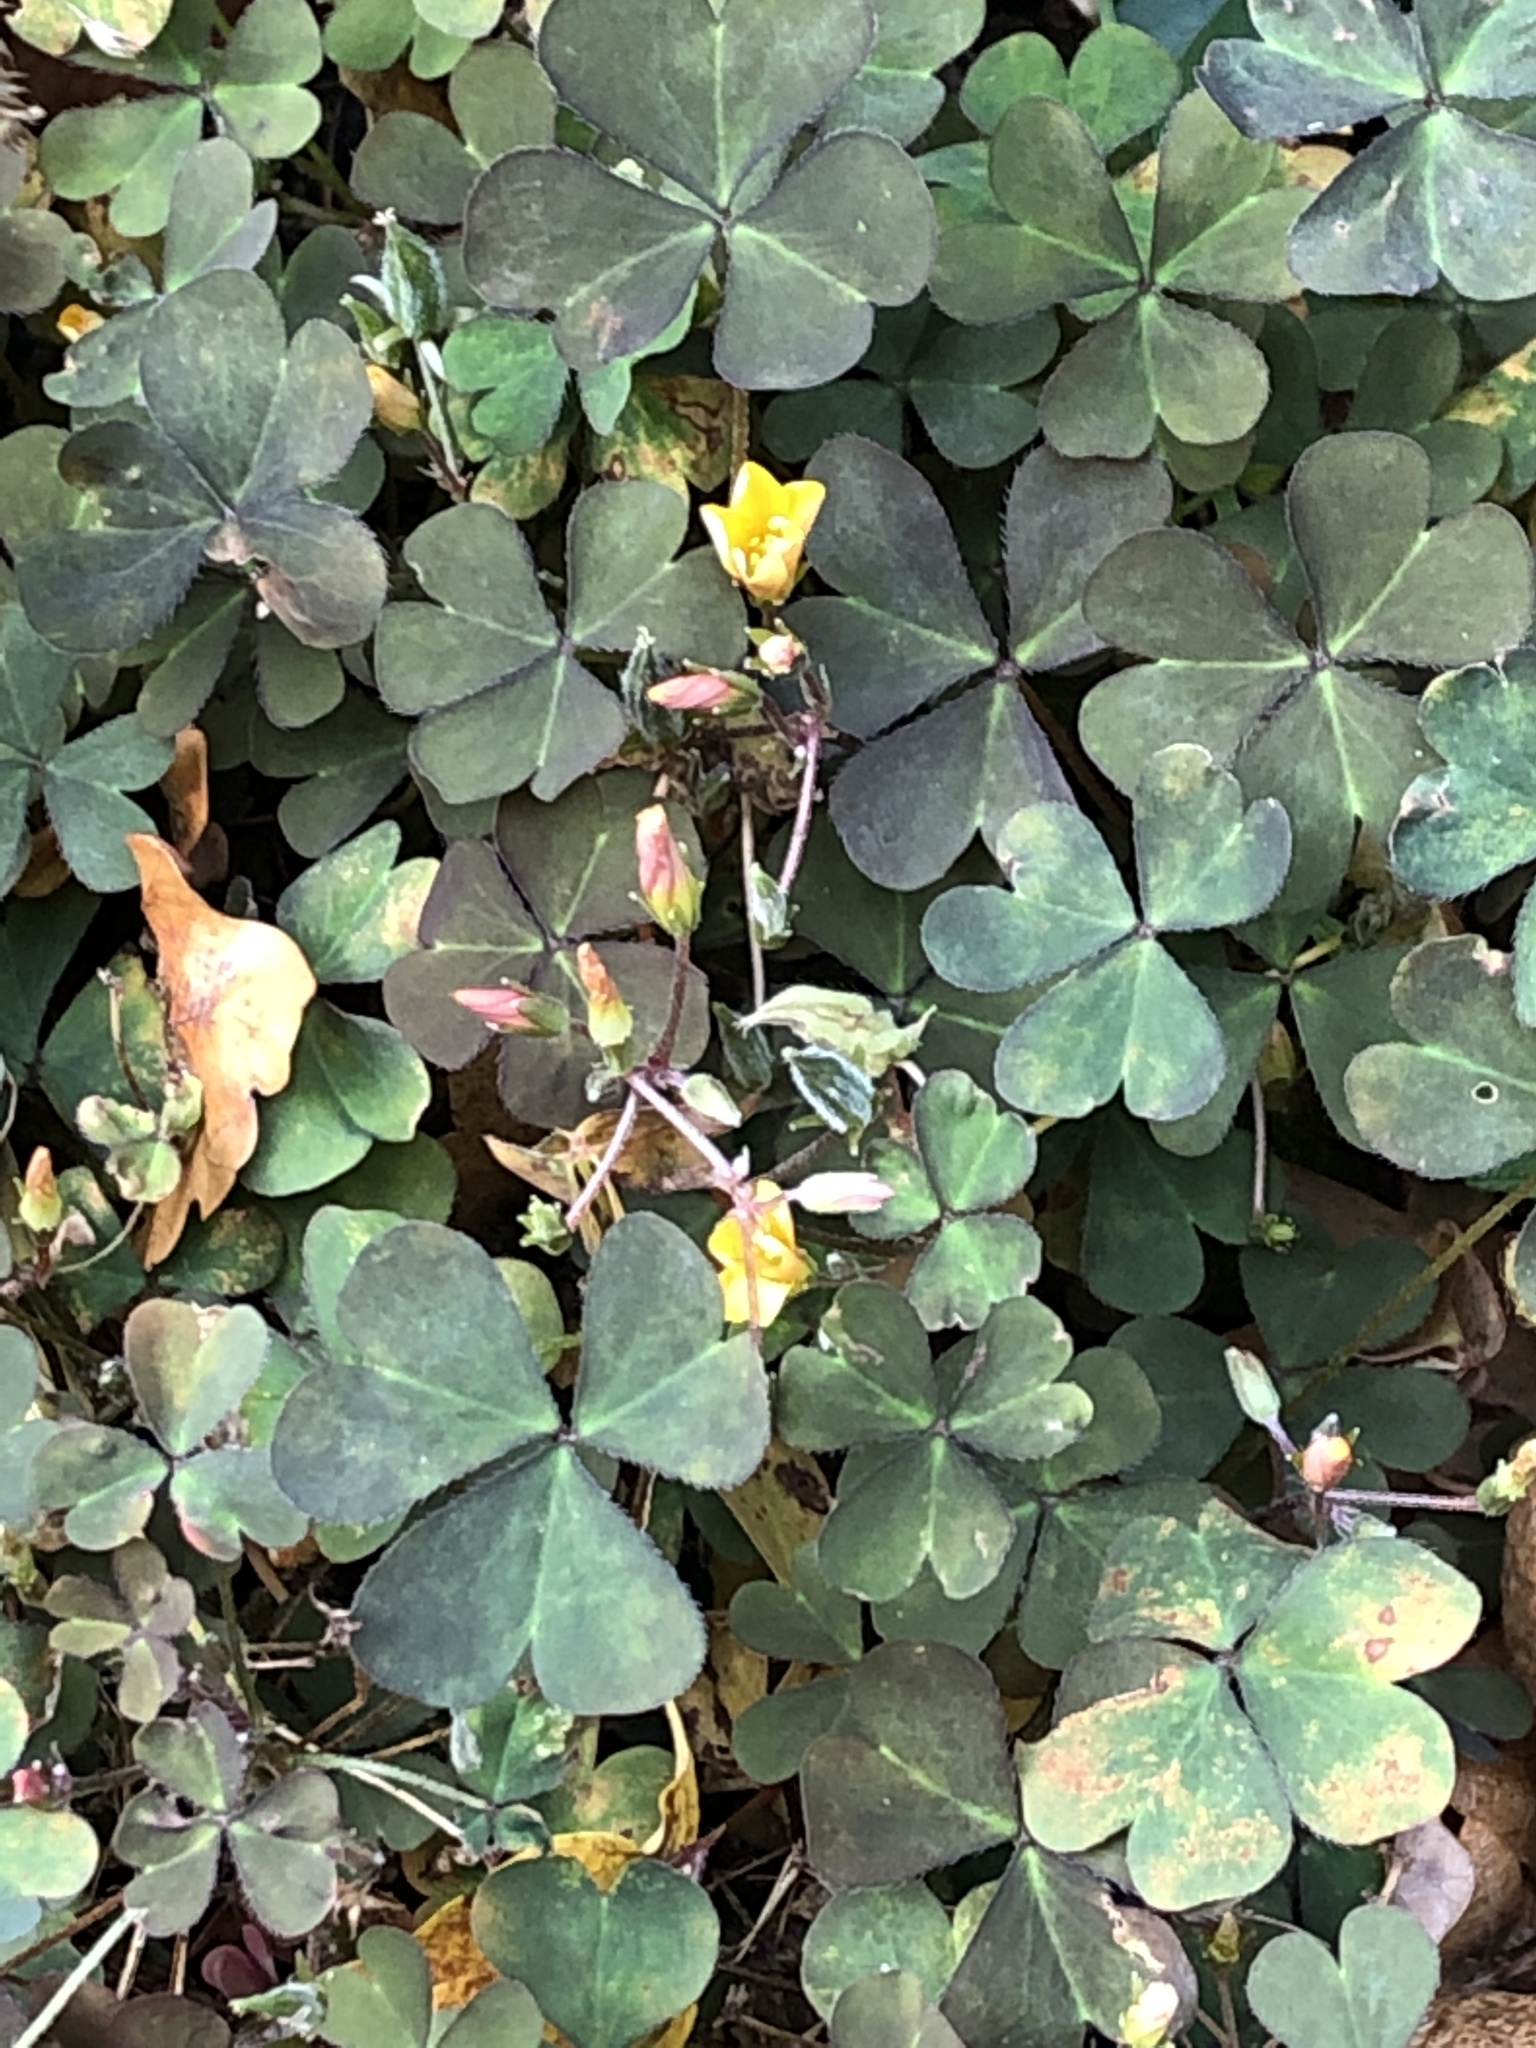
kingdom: Plantae
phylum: Tracheophyta
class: Magnoliopsida
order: Oxalidales
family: Oxalidaceae
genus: Oxalis
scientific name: Oxalis corniculata
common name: Procumbent yellow-sorrel
